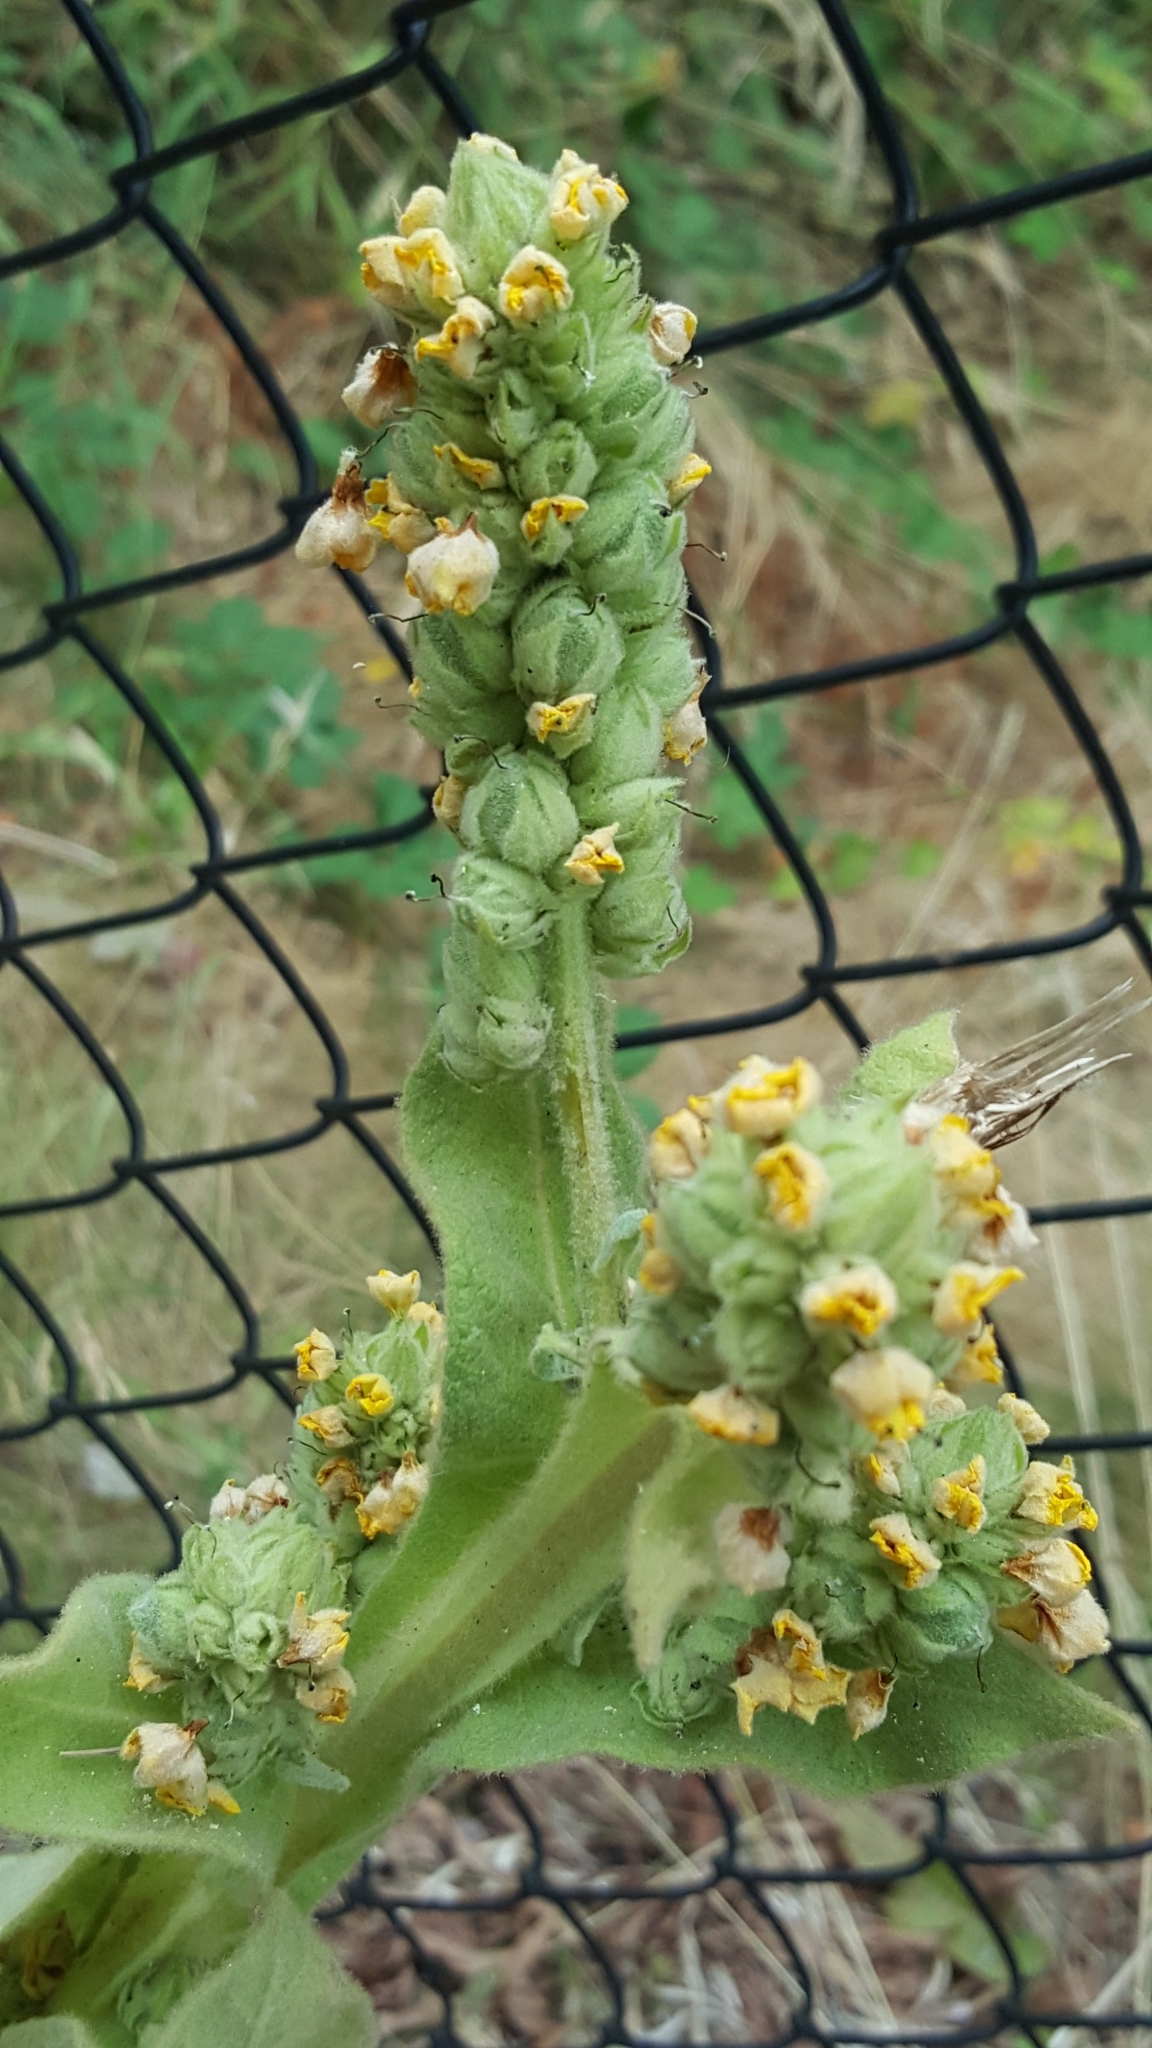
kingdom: Plantae
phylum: Tracheophyta
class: Magnoliopsida
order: Lamiales
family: Scrophulariaceae
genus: Verbascum
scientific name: Verbascum thapsus
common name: Common mullein
